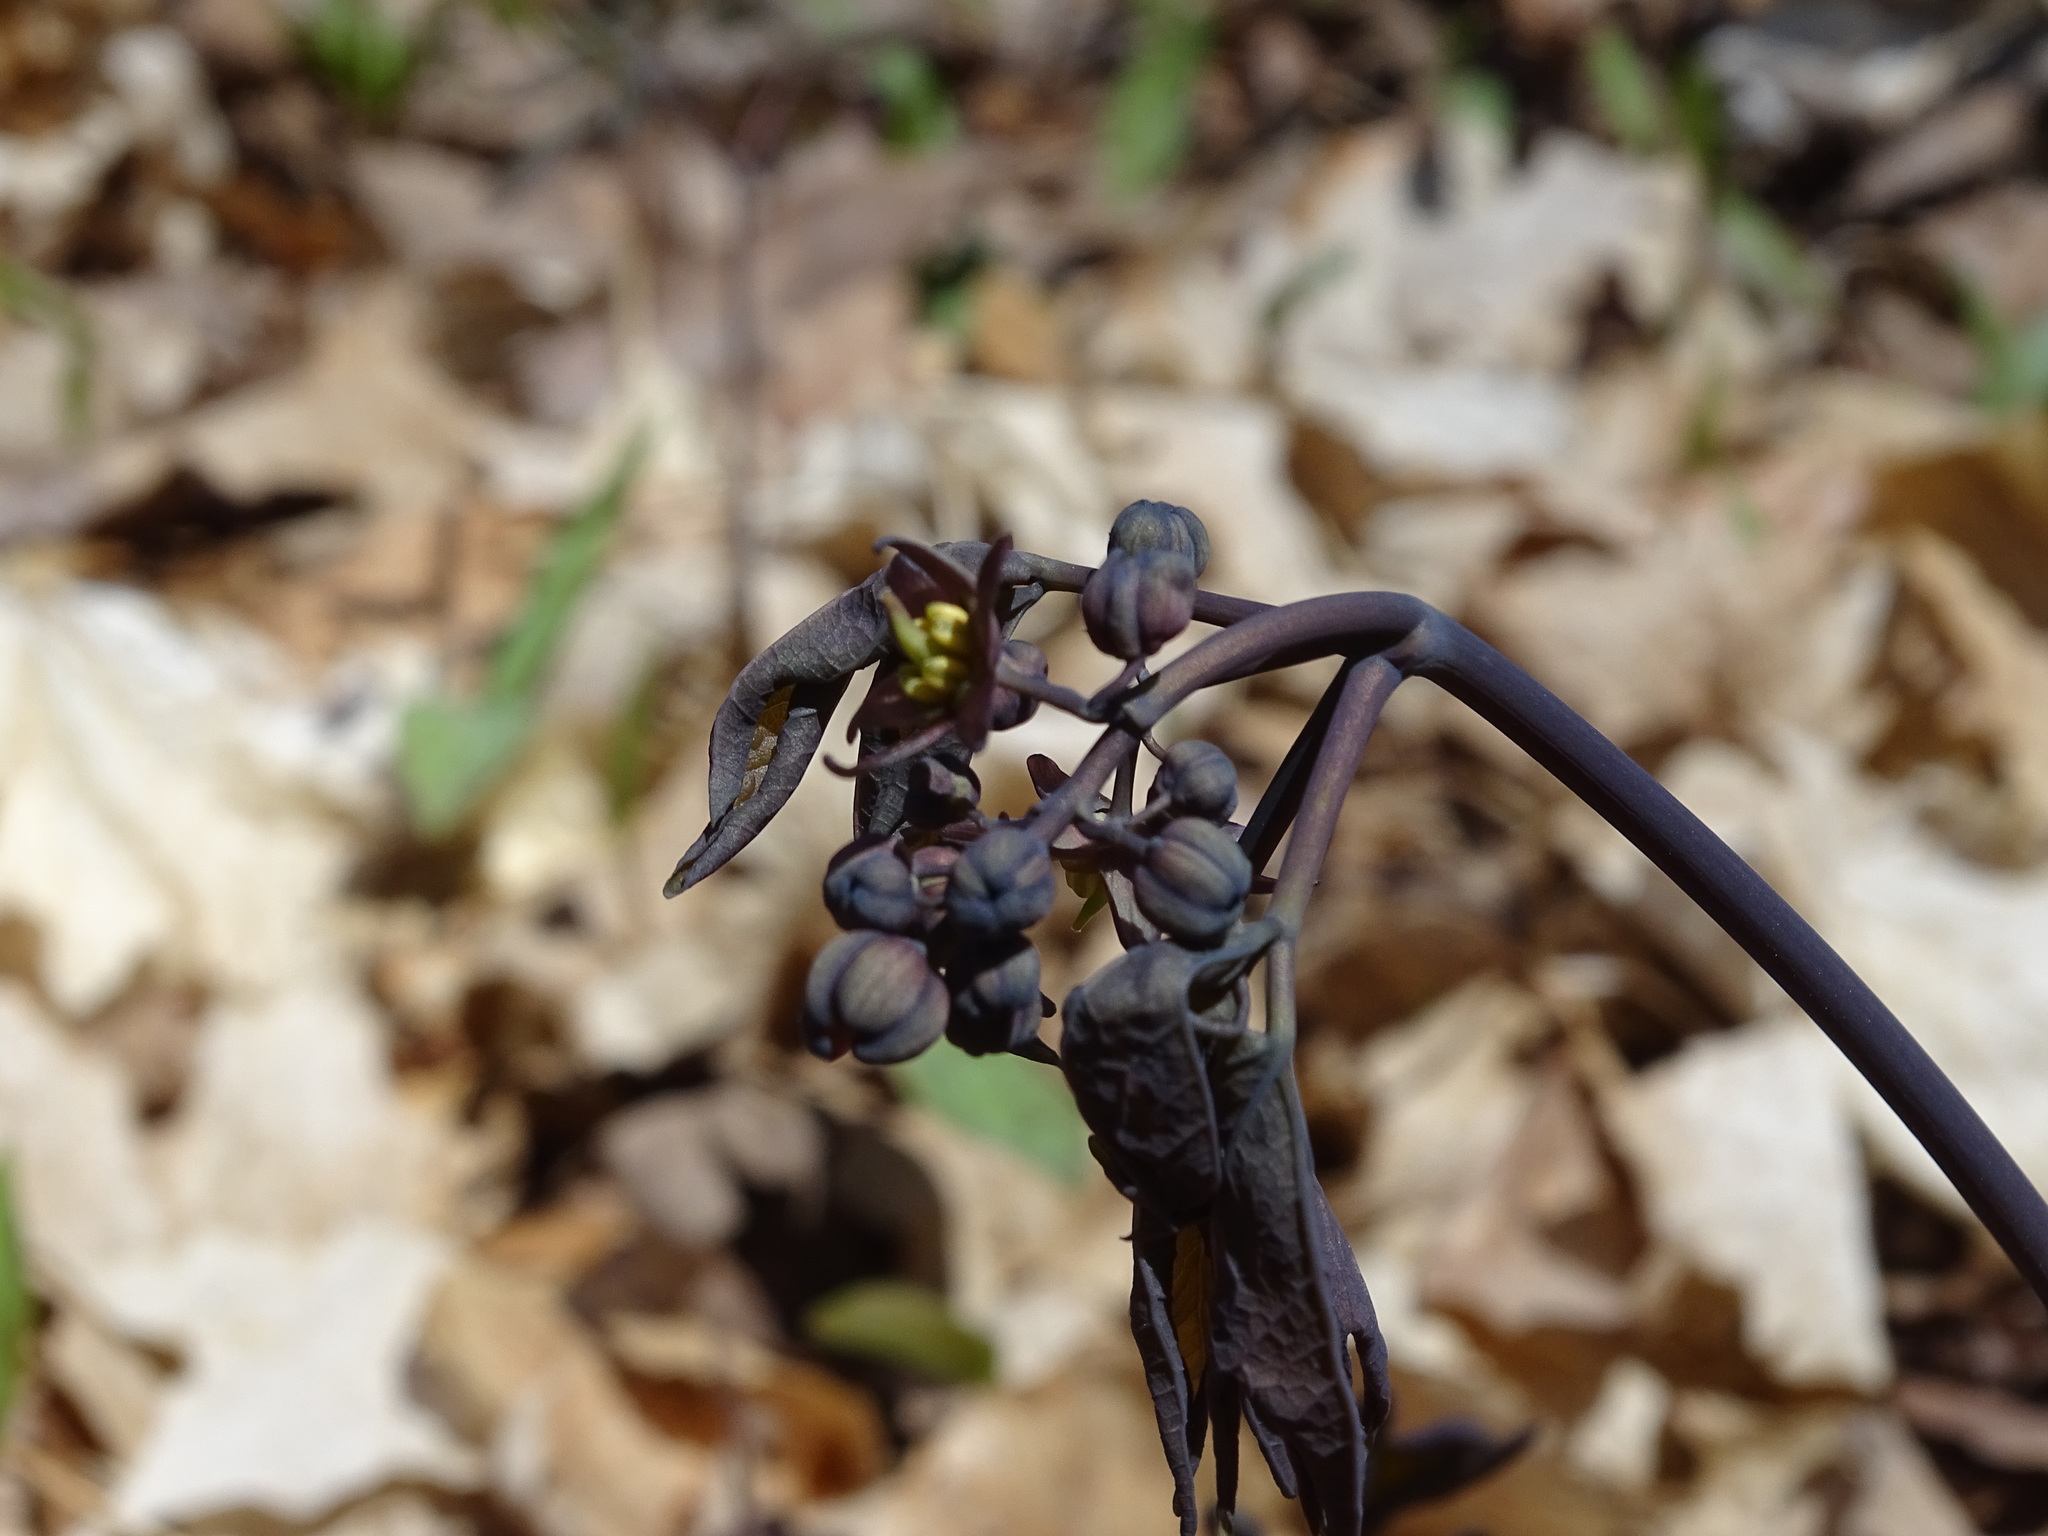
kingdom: Plantae
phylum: Tracheophyta
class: Magnoliopsida
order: Ranunculales
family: Berberidaceae
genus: Caulophyllum
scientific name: Caulophyllum giganteum
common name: Blue cohosh
